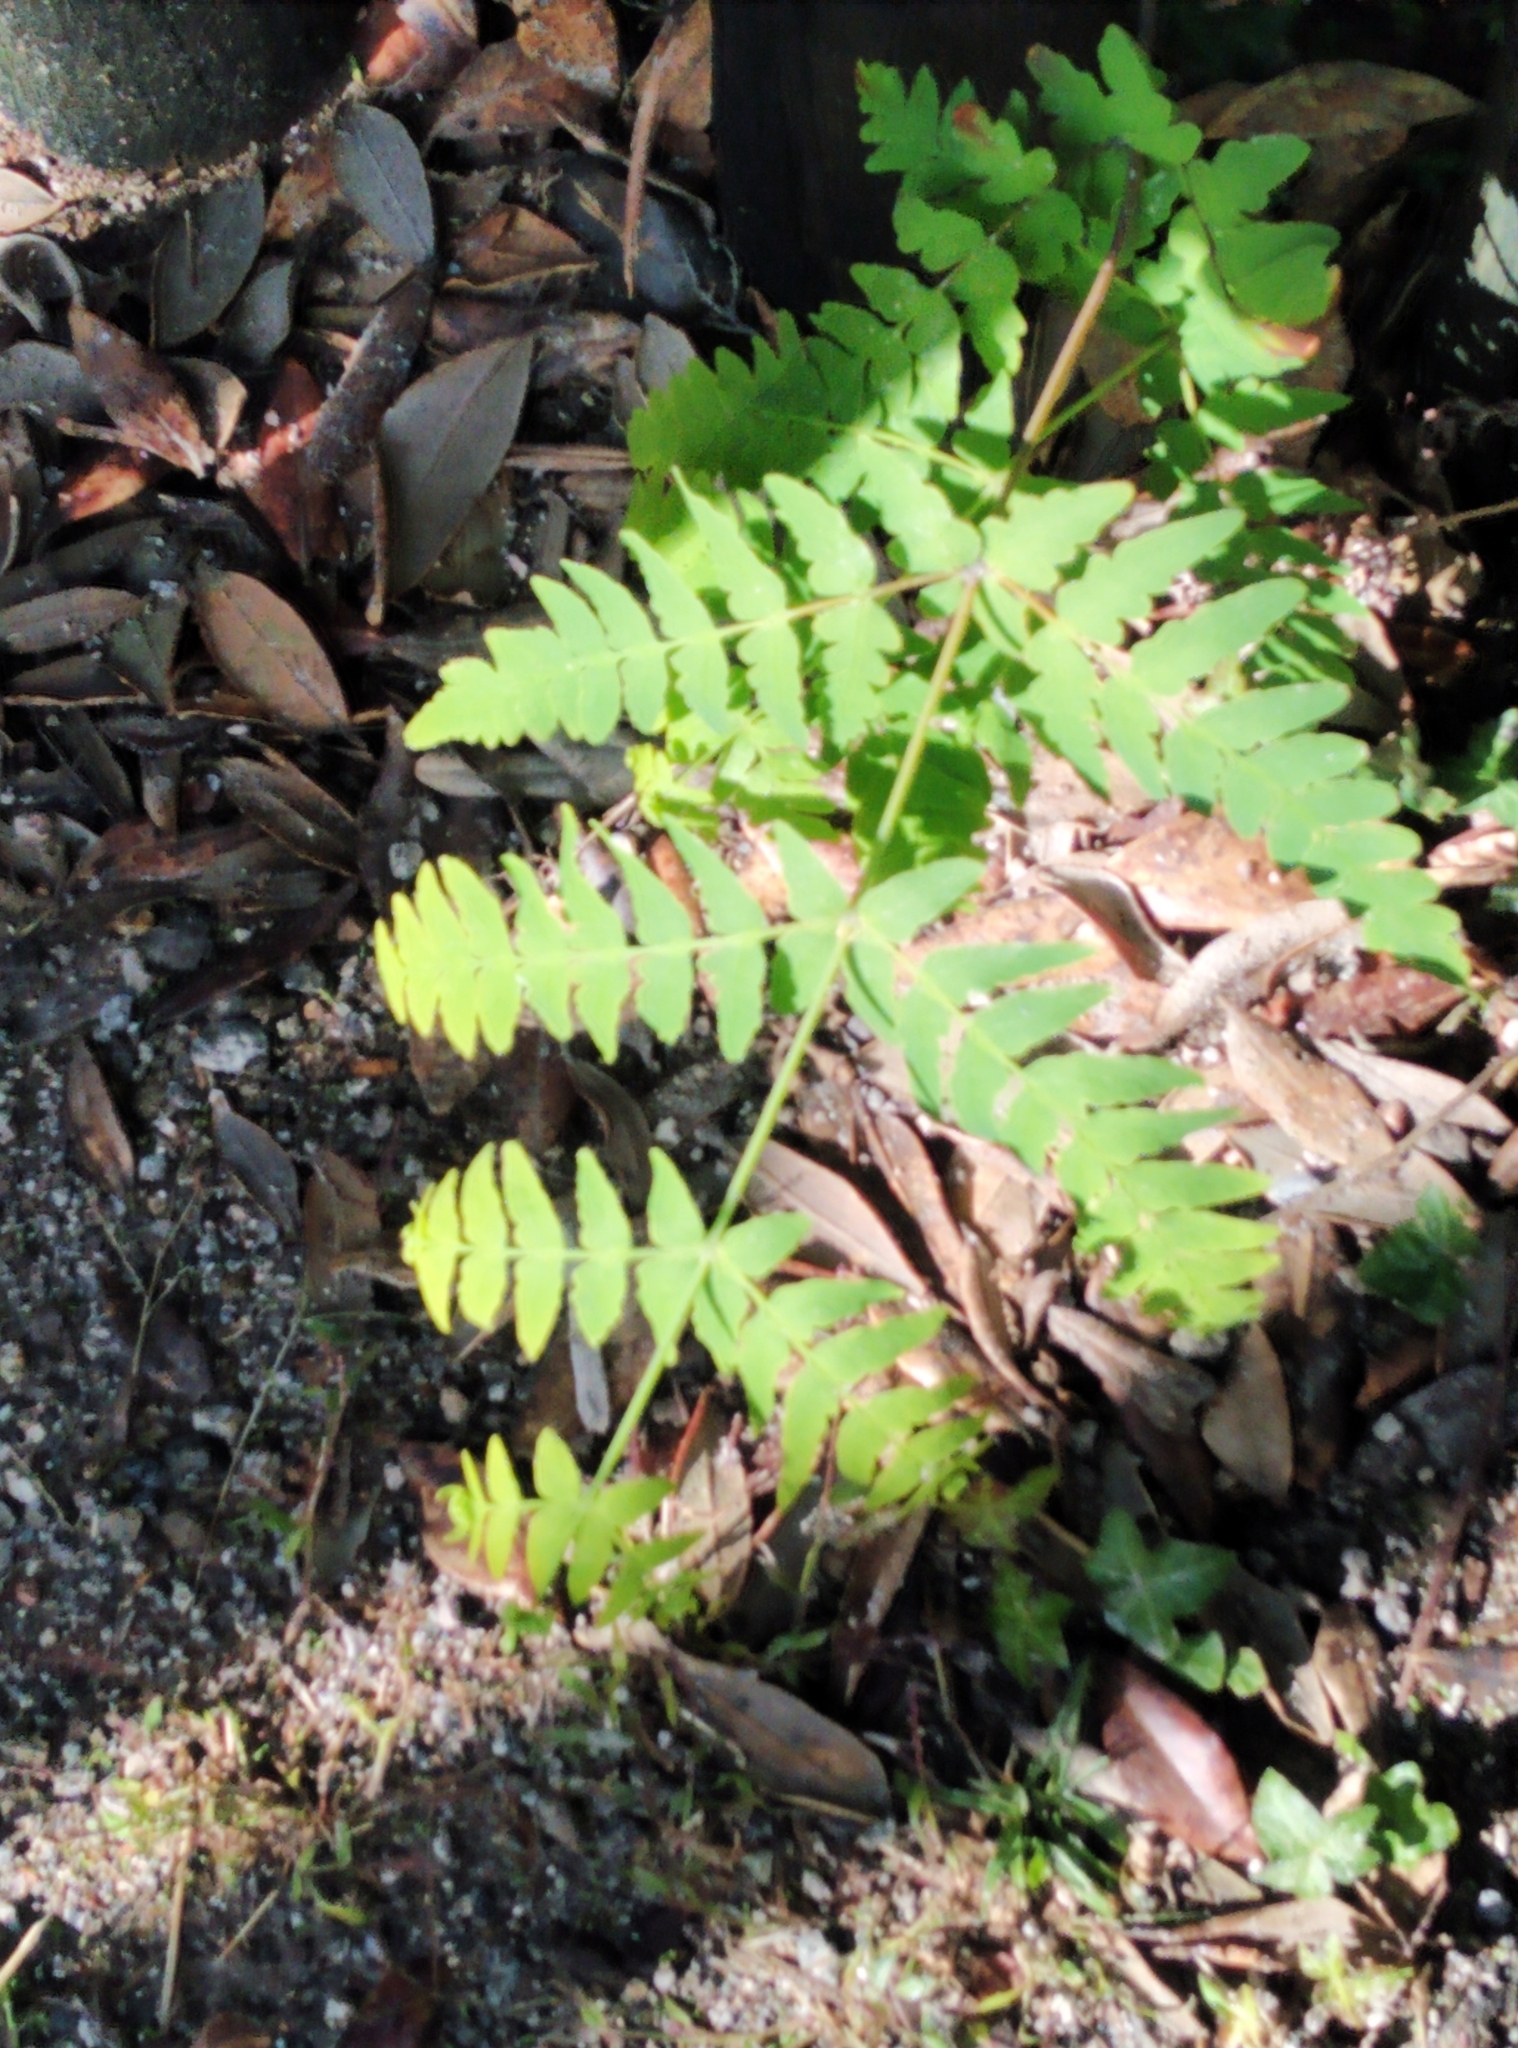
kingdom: Plantae
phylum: Tracheophyta
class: Polypodiopsida
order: Polypodiales
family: Dennstaedtiaceae
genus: Histiopteris
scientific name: Histiopteris incisa
